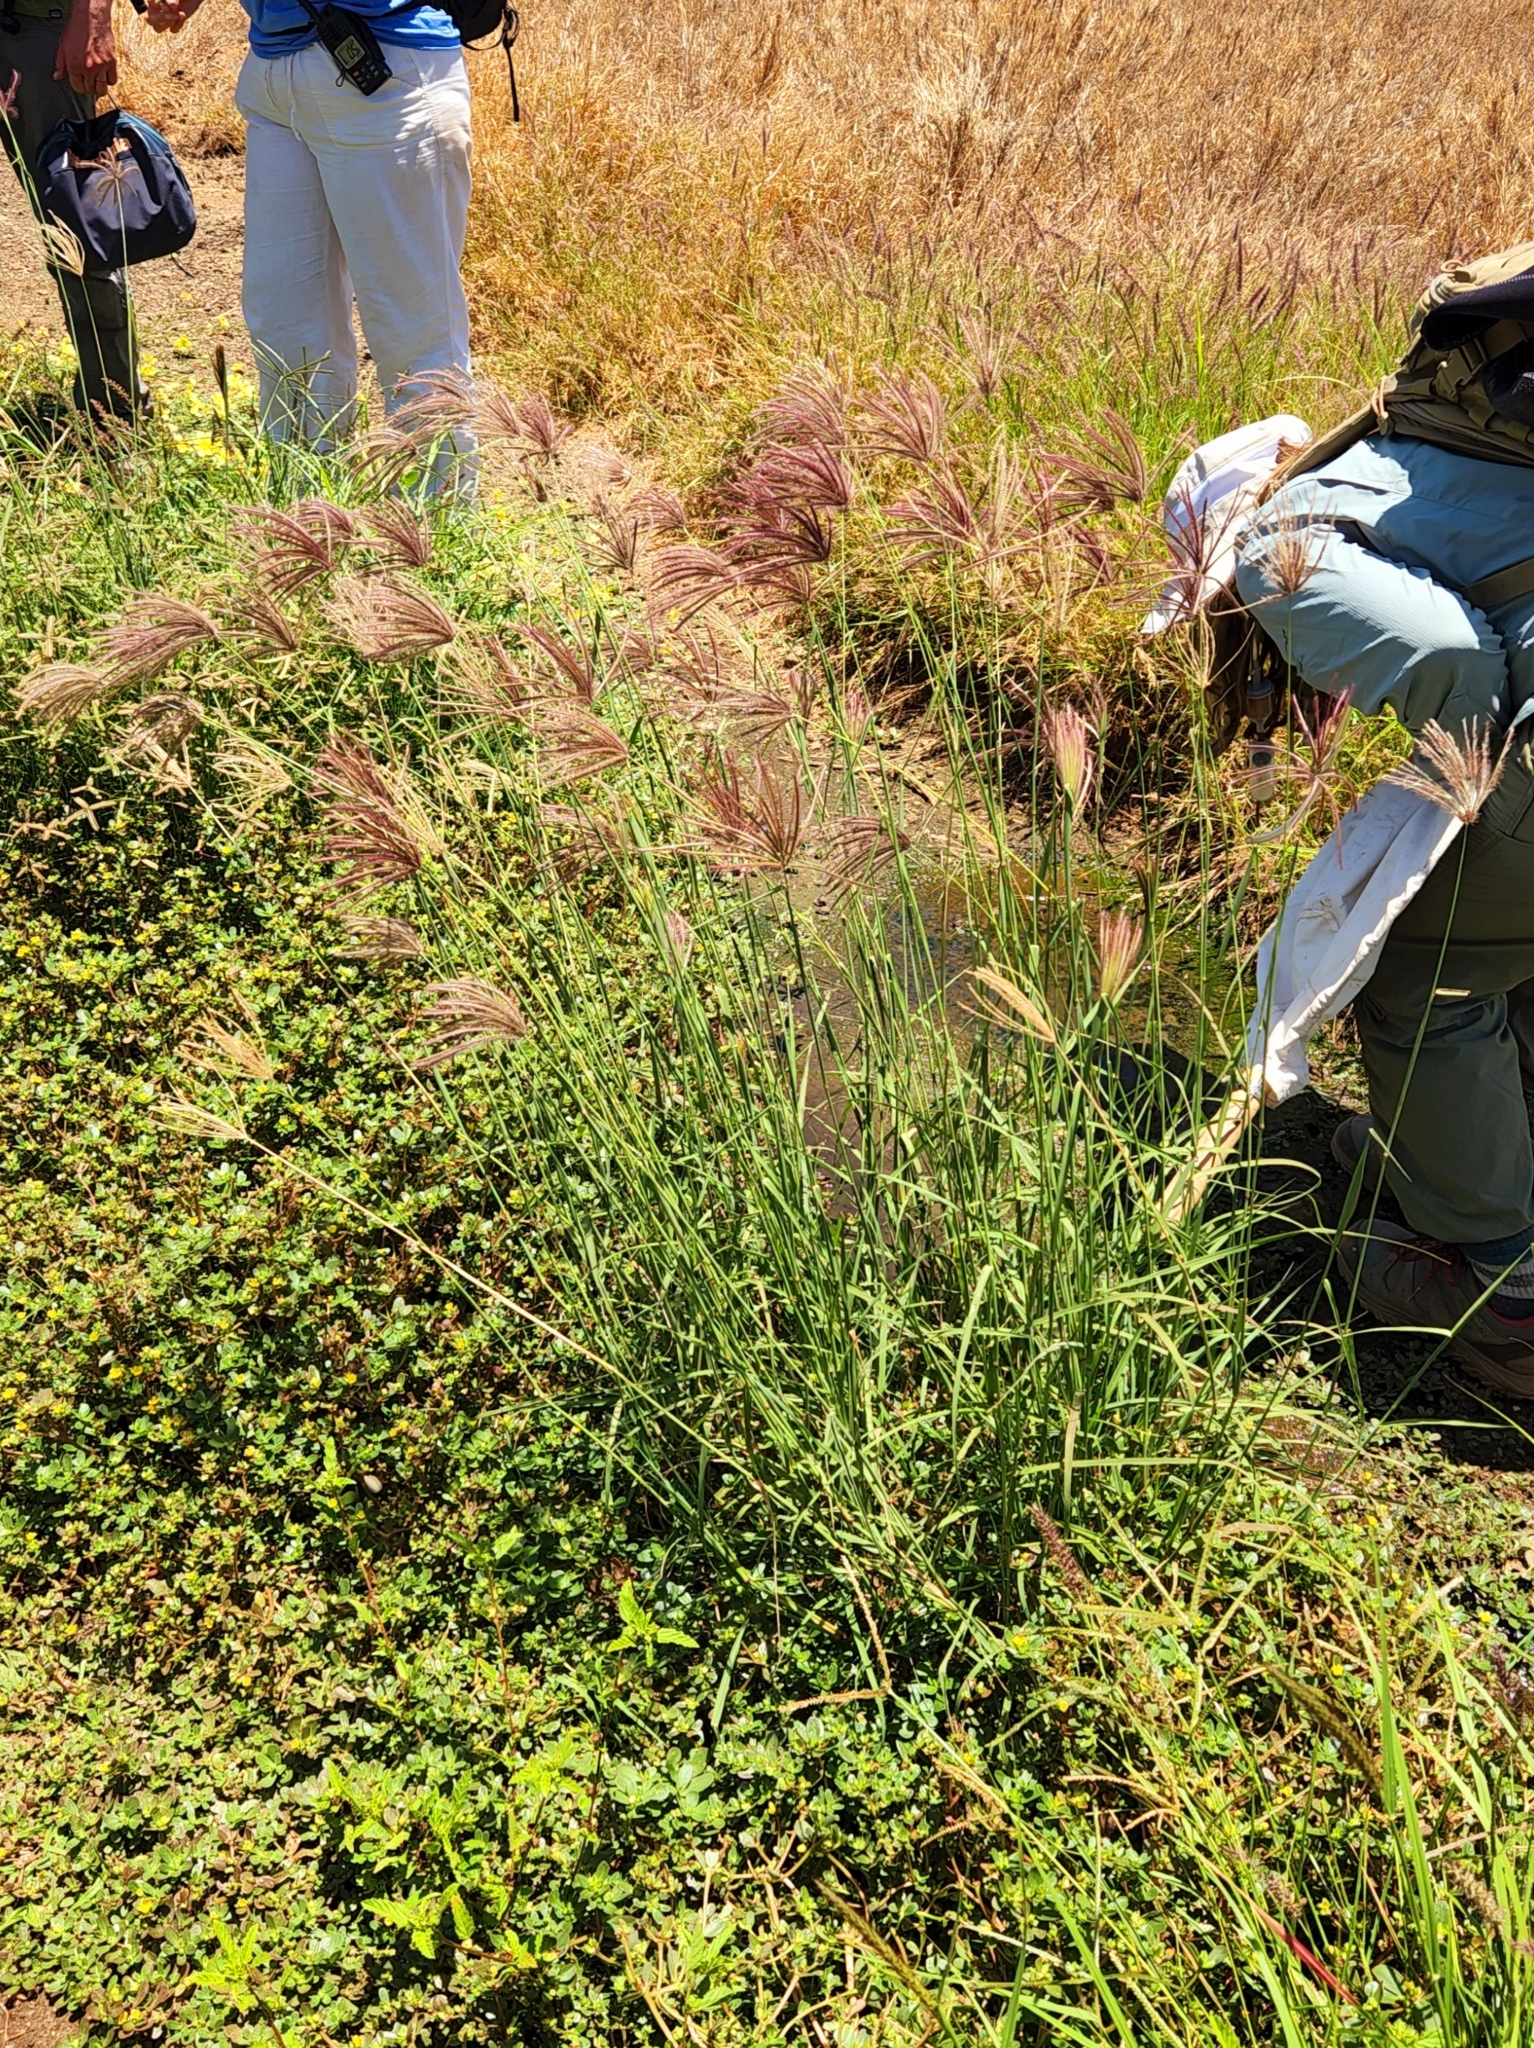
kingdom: Plantae
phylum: Tracheophyta
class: Liliopsida
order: Poales
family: Poaceae
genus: Chloris
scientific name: Chloris barbata
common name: Swollen fingergrass
